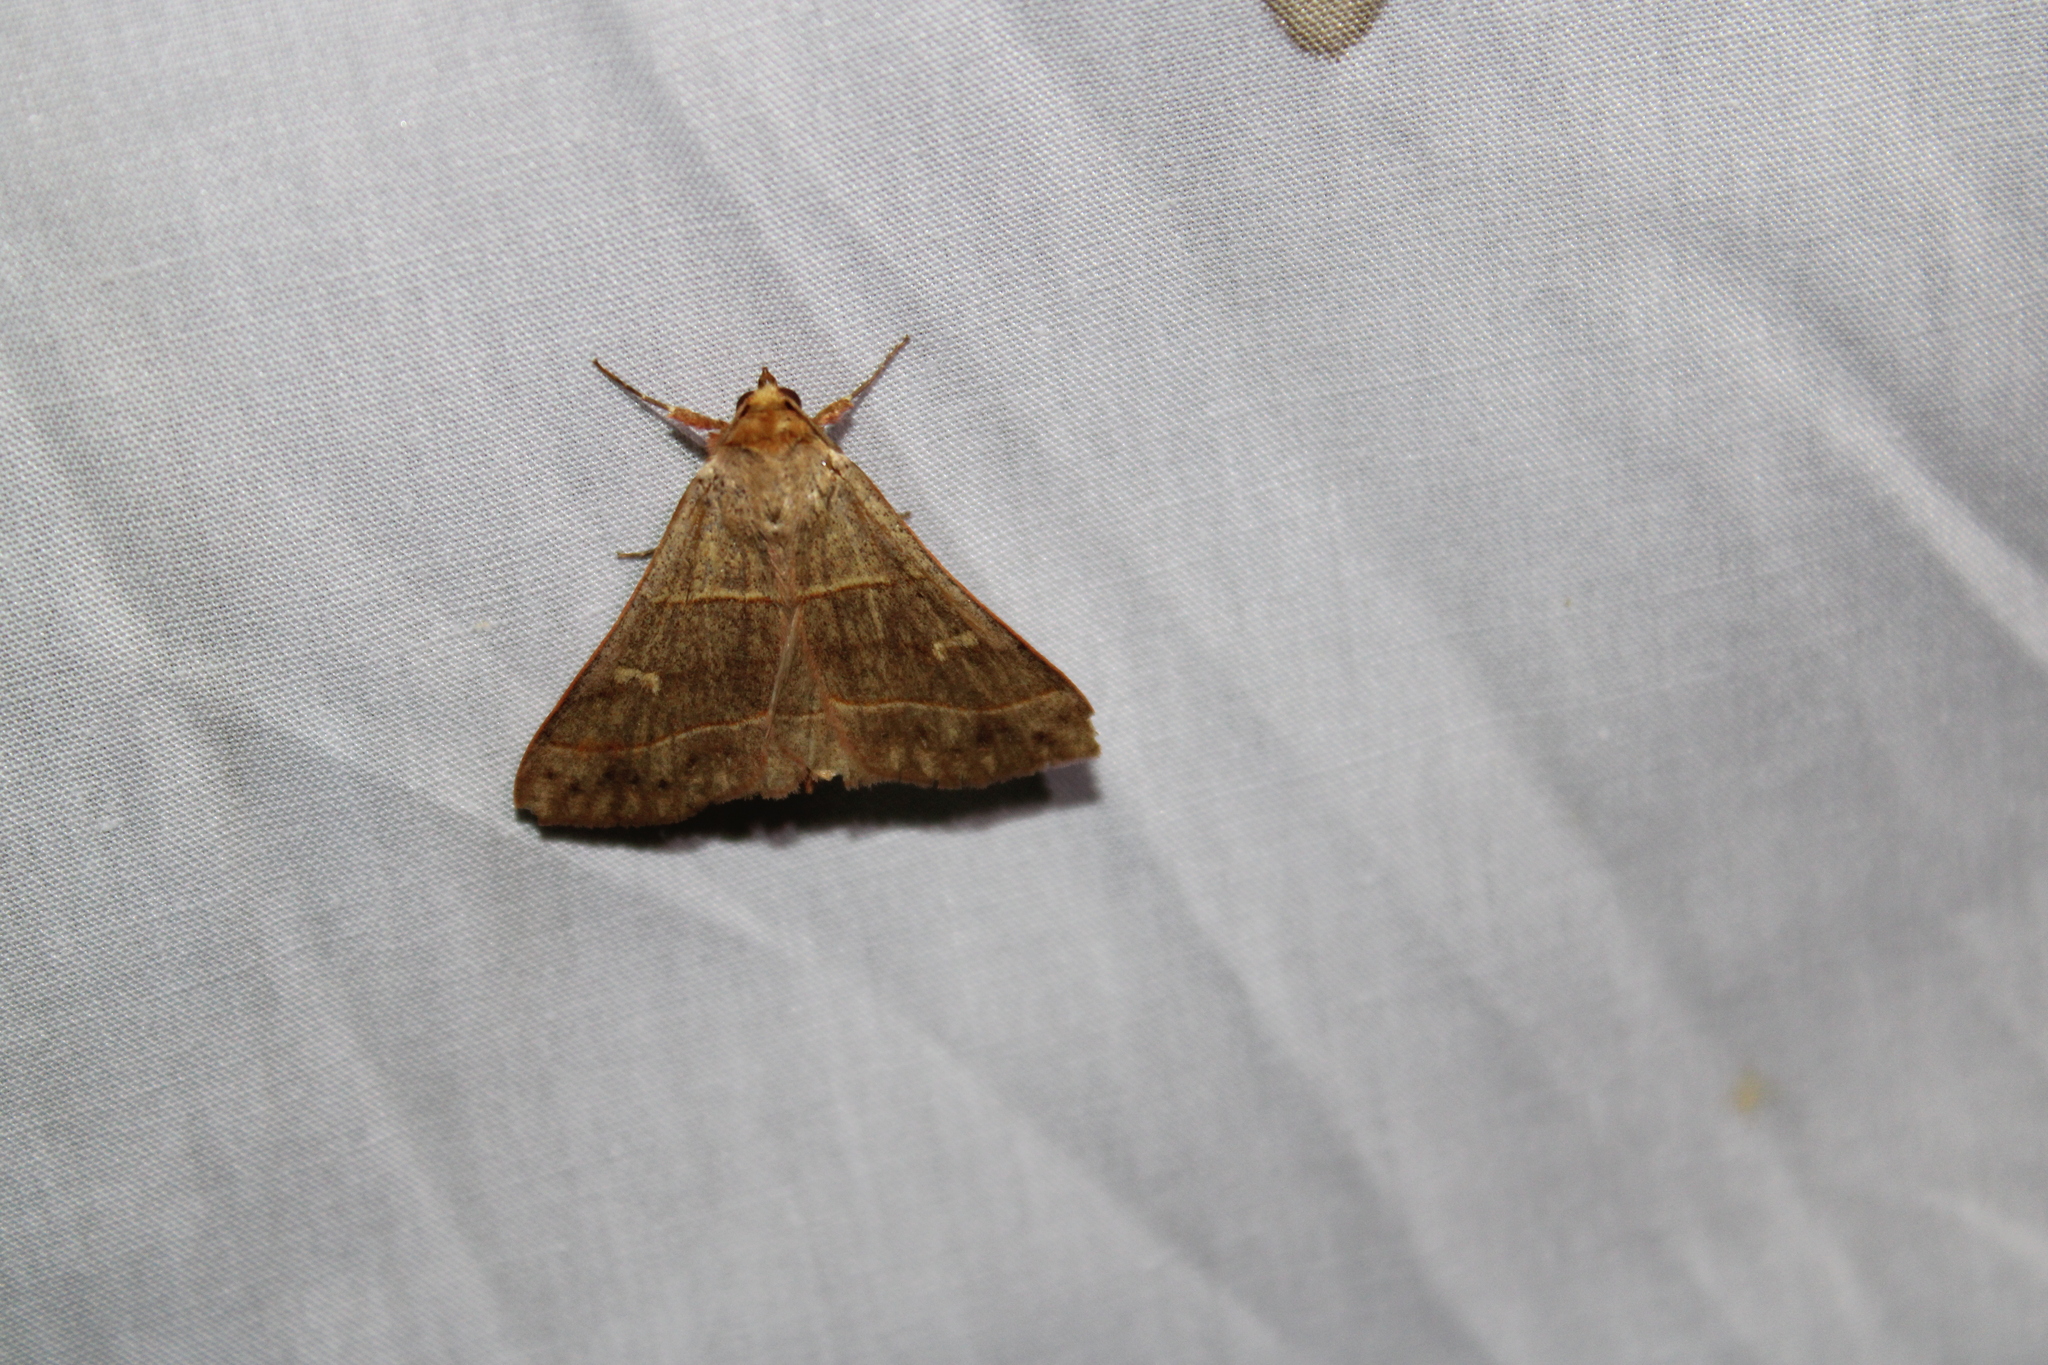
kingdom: Animalia
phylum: Arthropoda
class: Insecta
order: Lepidoptera
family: Erebidae
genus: Panopoda
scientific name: Panopoda rufimargo
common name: Red-lined panopoda moth
